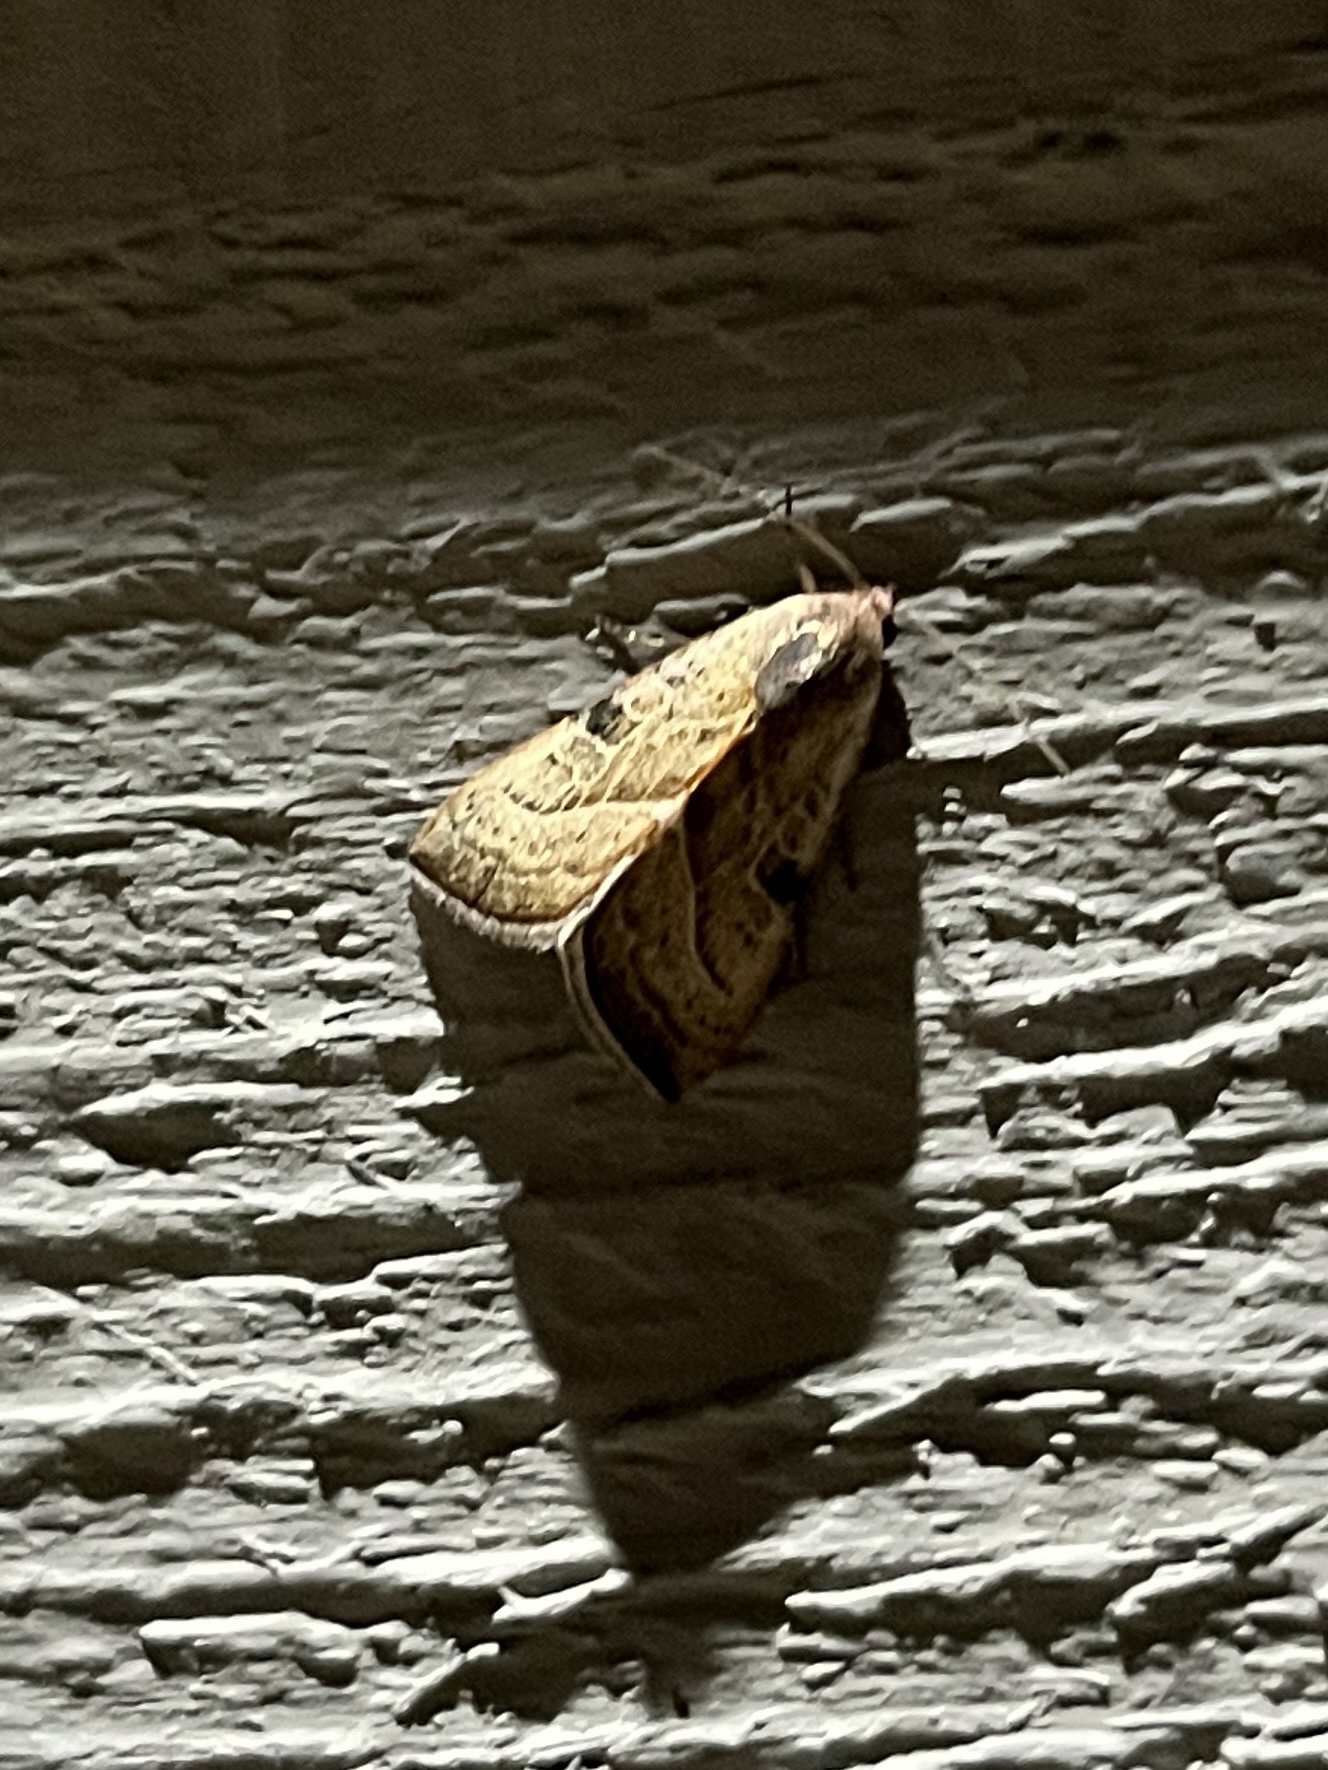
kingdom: Animalia
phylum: Arthropoda
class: Insecta
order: Lepidoptera
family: Noctuidae
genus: Galgula
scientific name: Galgula partita
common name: Wedgeling
